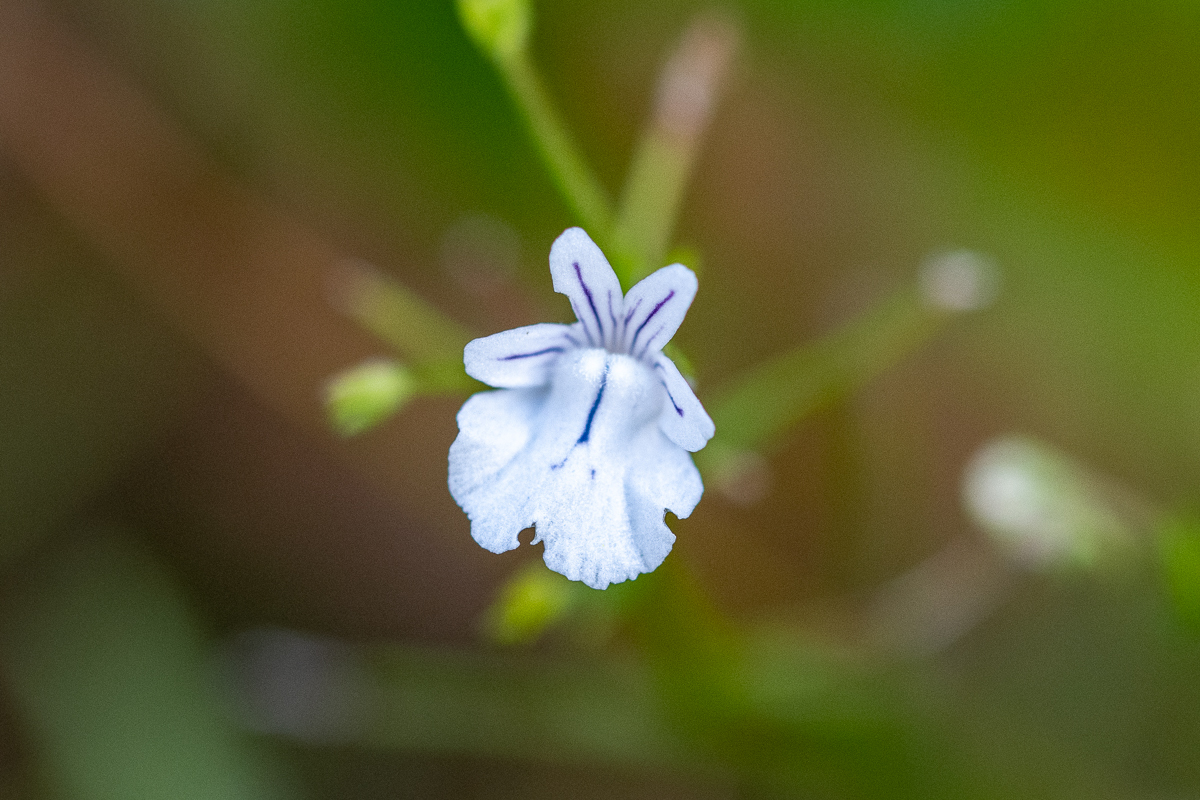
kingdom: Plantae
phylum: Tracheophyta
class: Magnoliopsida
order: Lamiales
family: Scrophulariaceae
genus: Nemesia
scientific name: Nemesia diffusa
